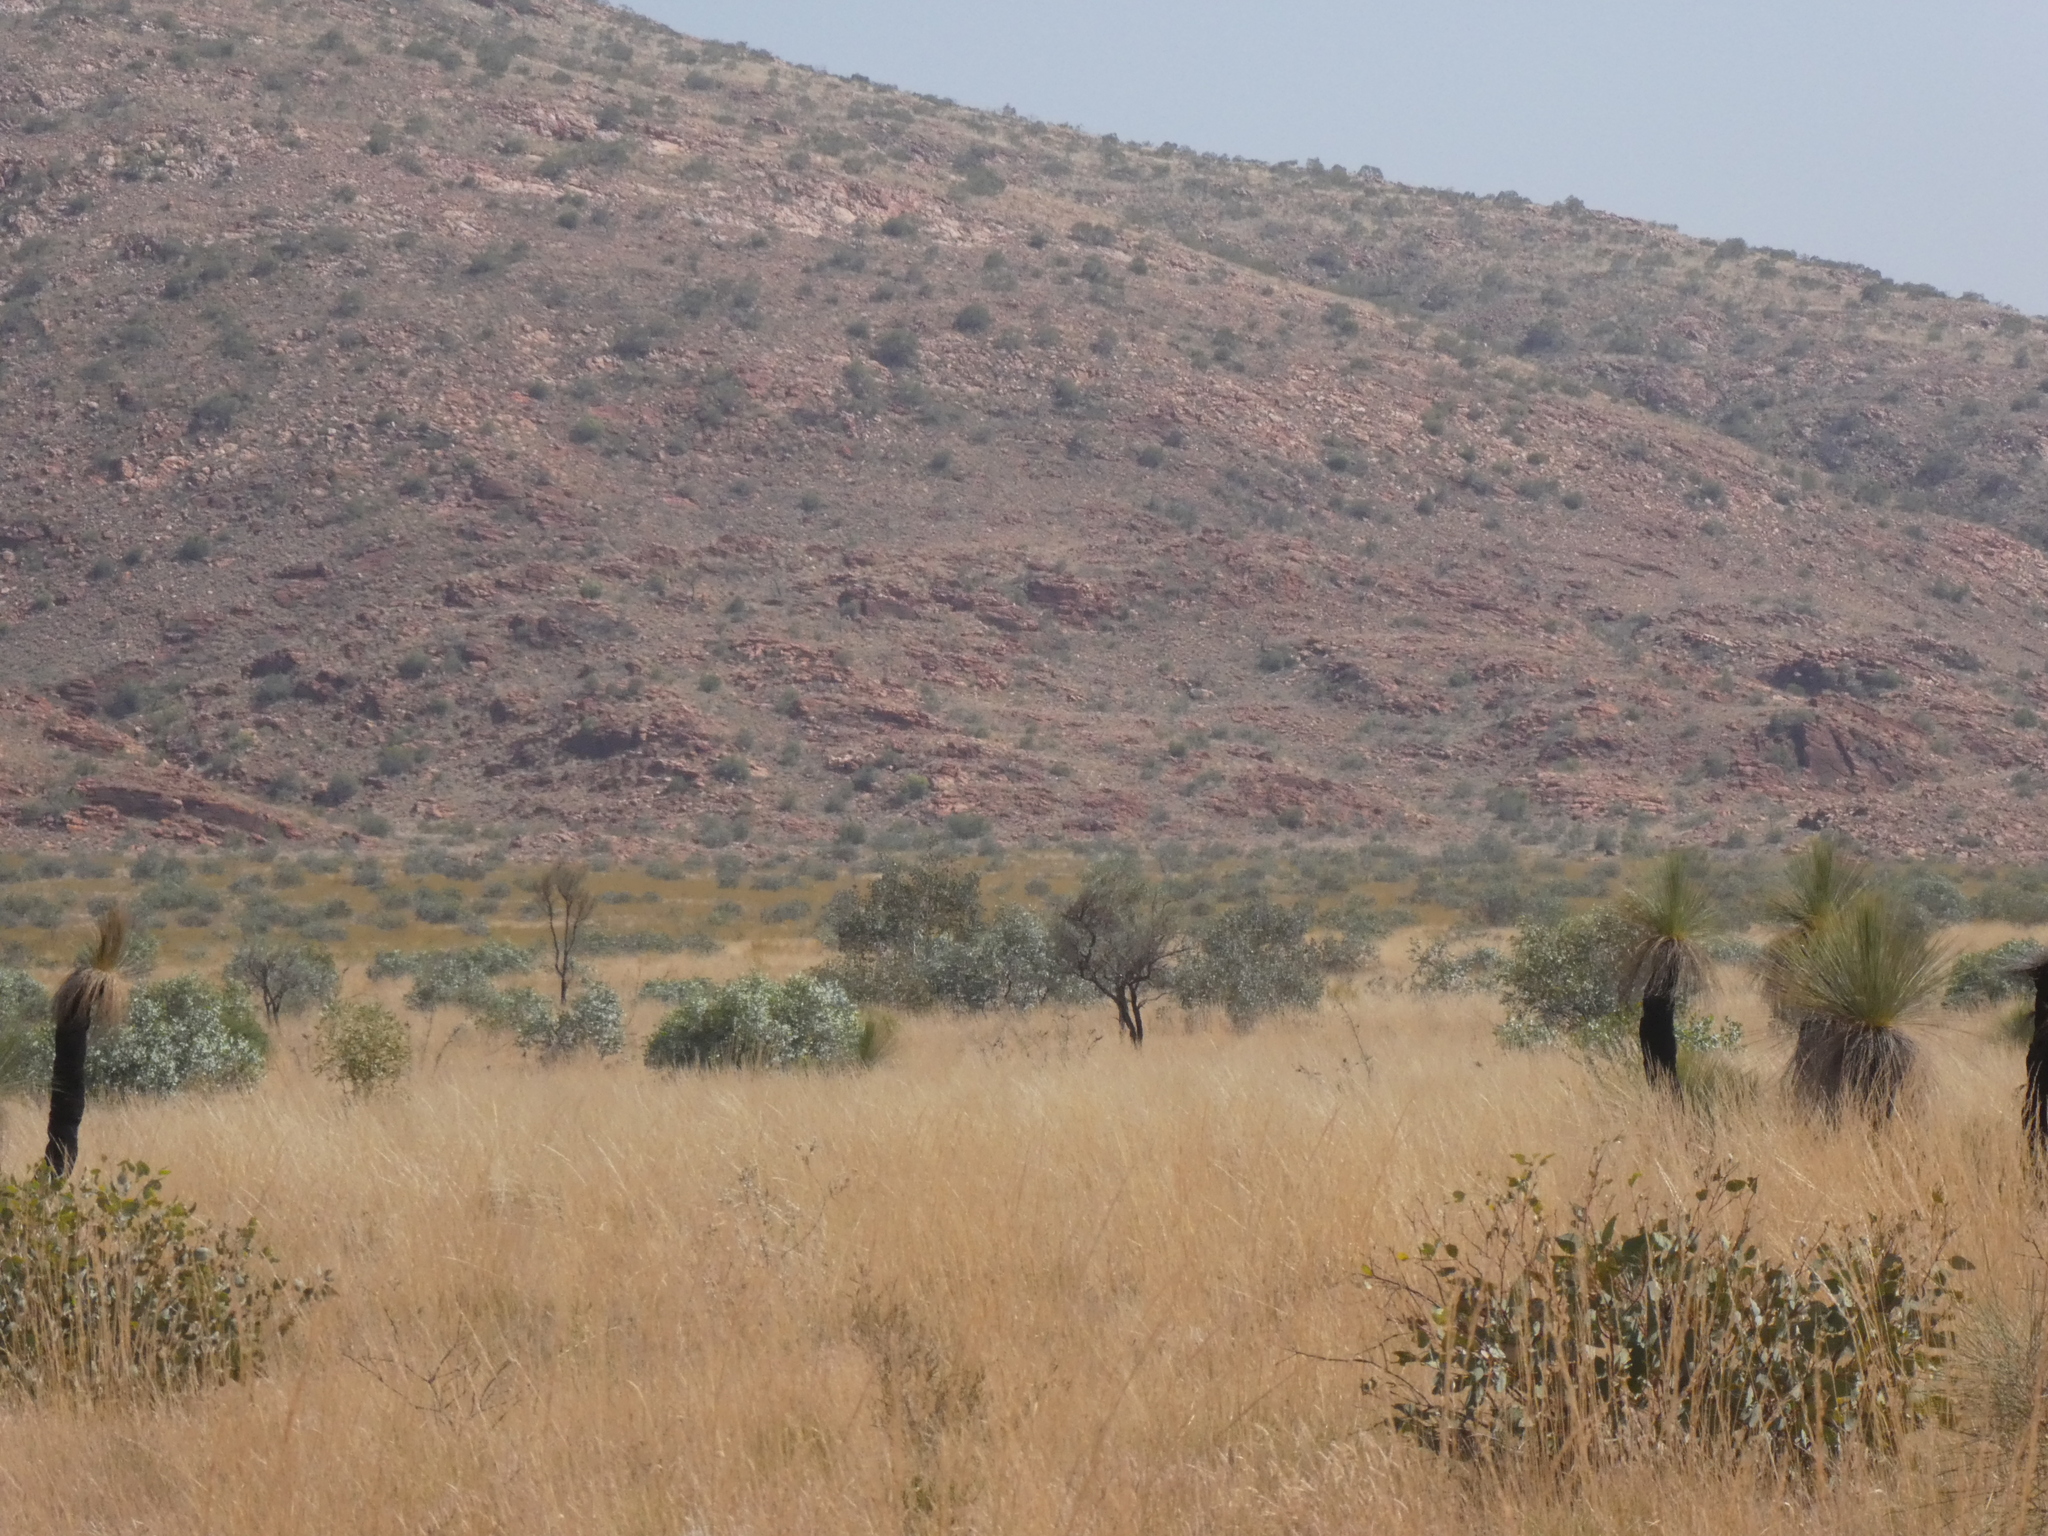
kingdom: Plantae
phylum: Tracheophyta
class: Liliopsida
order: Asparagales
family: Asphodelaceae
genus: Xanthorrhoea
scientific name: Xanthorrhoea thorntonii
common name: Cundeelee grass-tree
